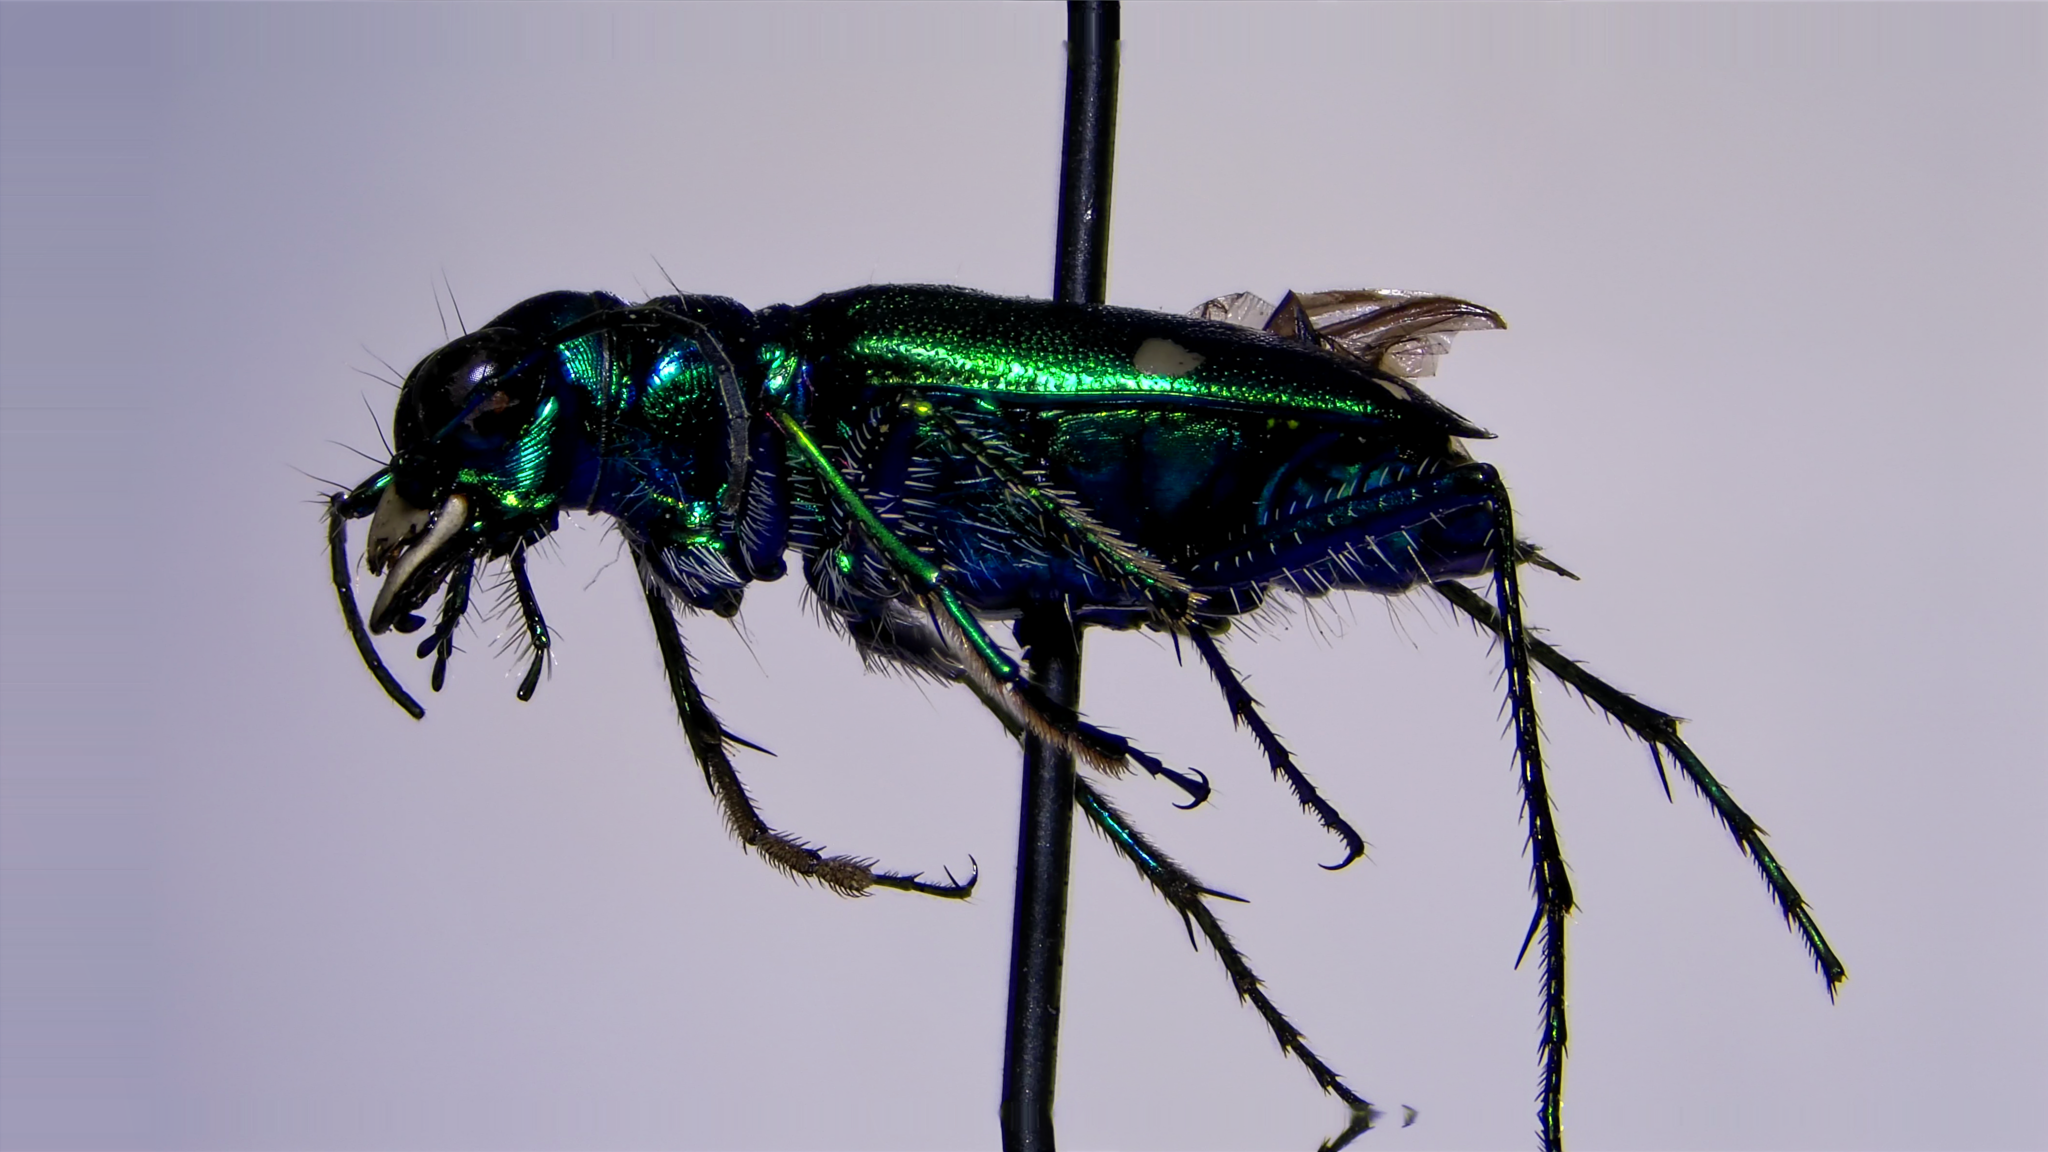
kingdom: Animalia
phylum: Arthropoda
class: Insecta
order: Coleoptera
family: Carabidae
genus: Cicindela
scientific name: Cicindela sexguttata
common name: Six-spotted tiger beetle
